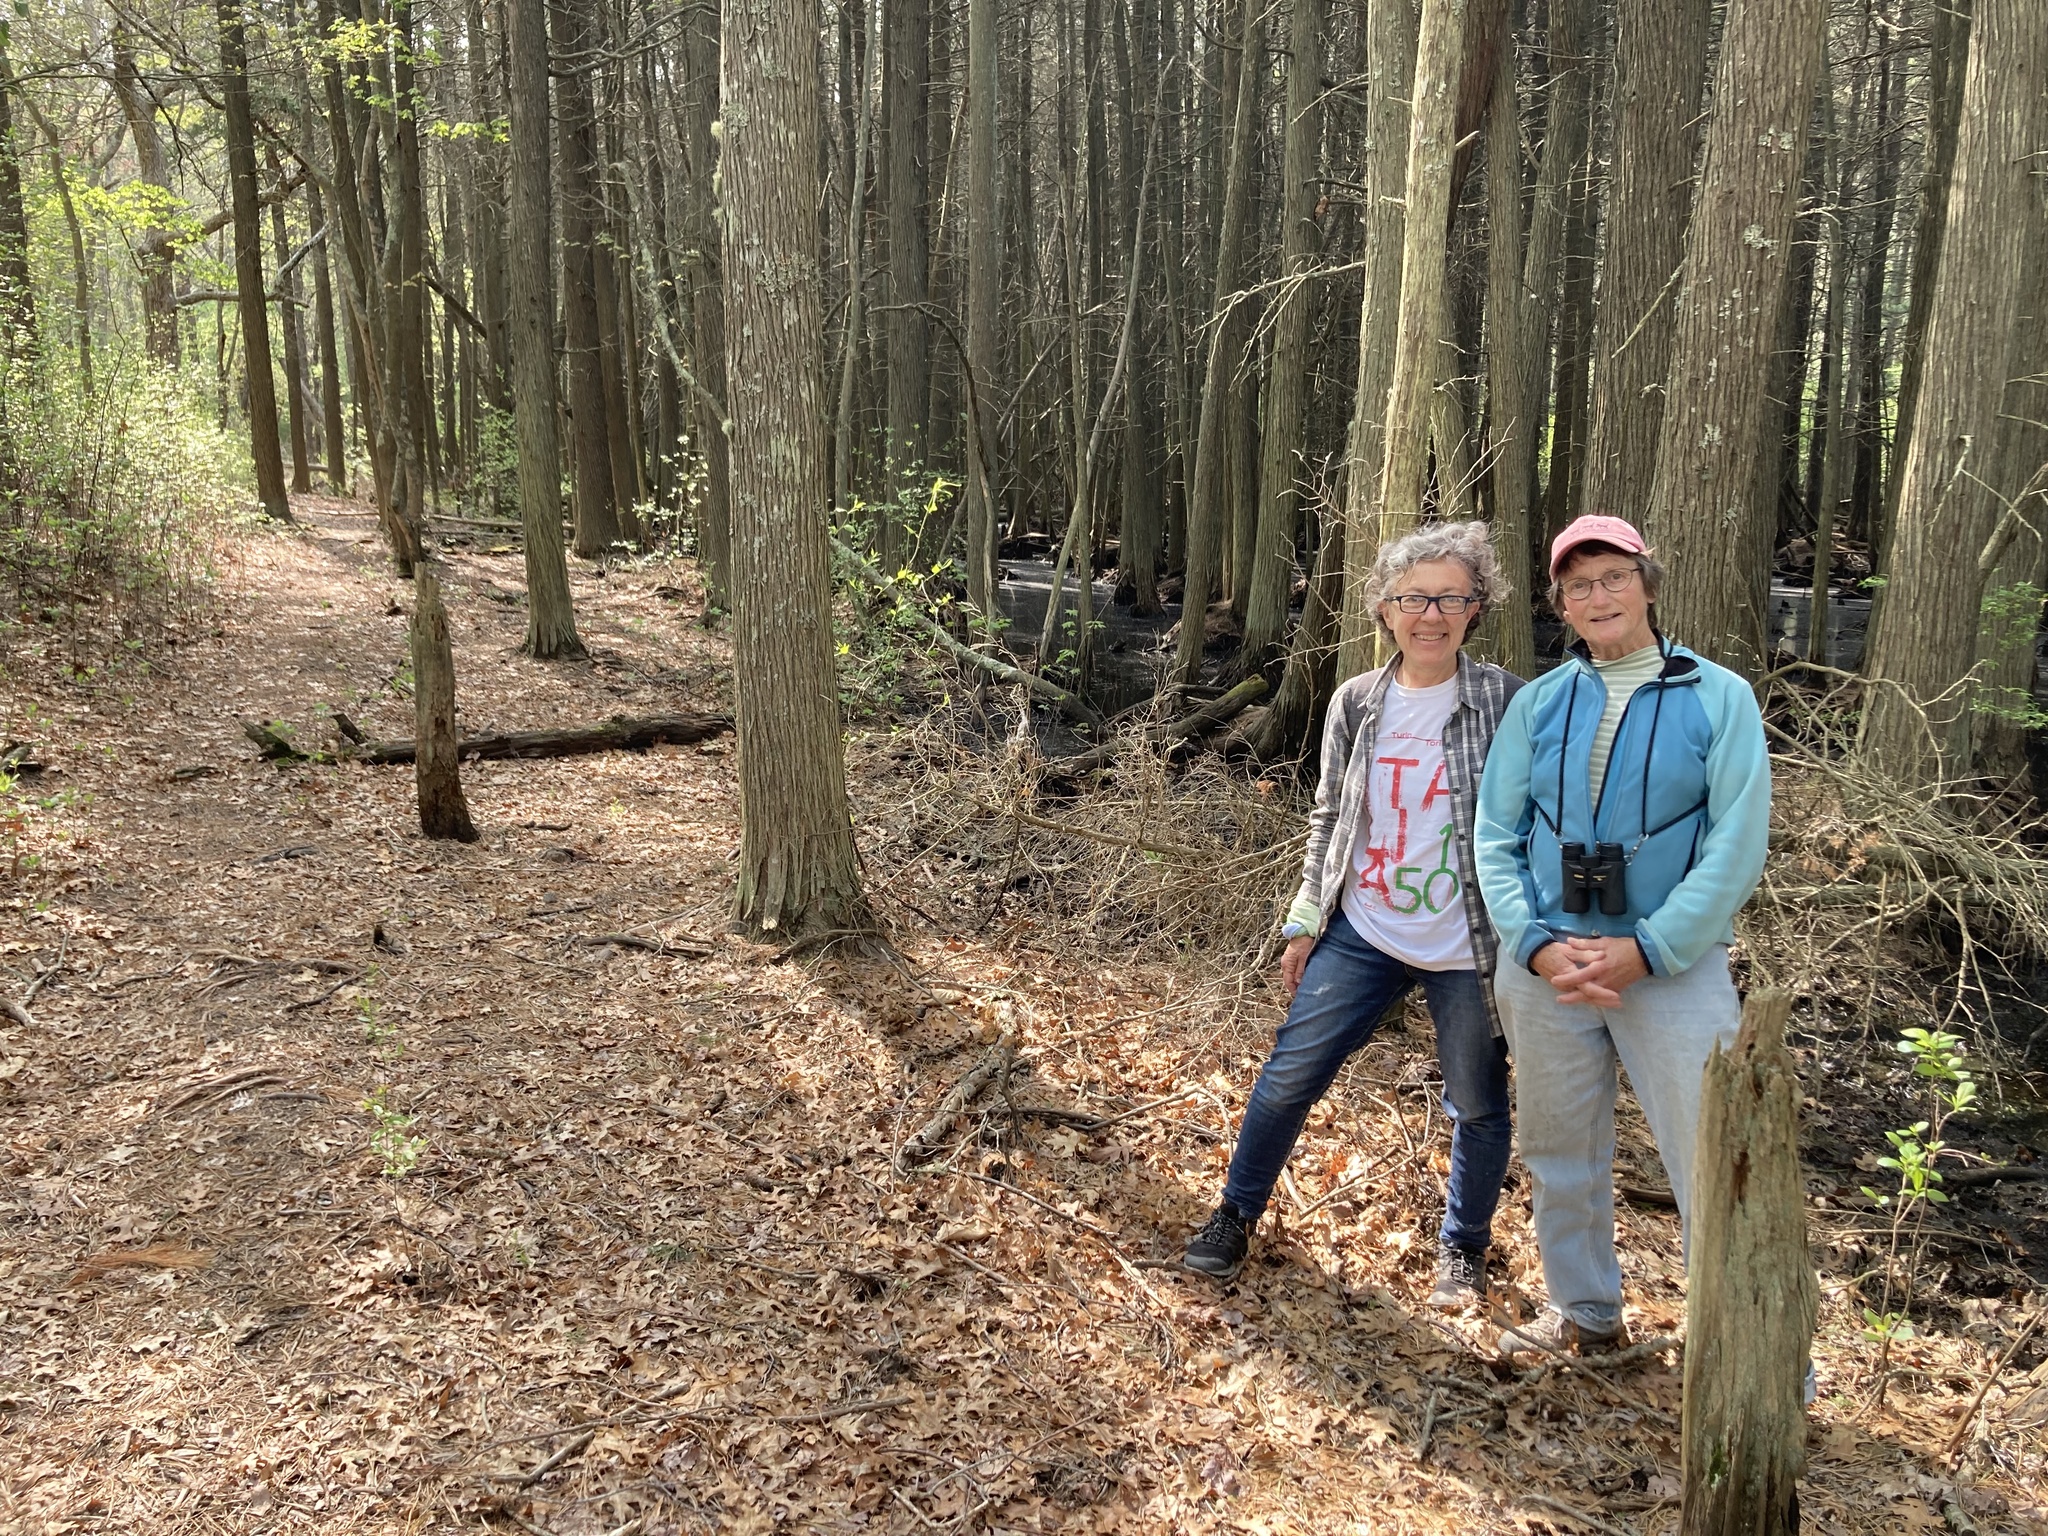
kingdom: Plantae
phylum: Tracheophyta
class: Pinopsida
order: Pinales
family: Cupressaceae
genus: Chamaecyparis
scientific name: Chamaecyparis thyoides
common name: Atlantic white cedar
